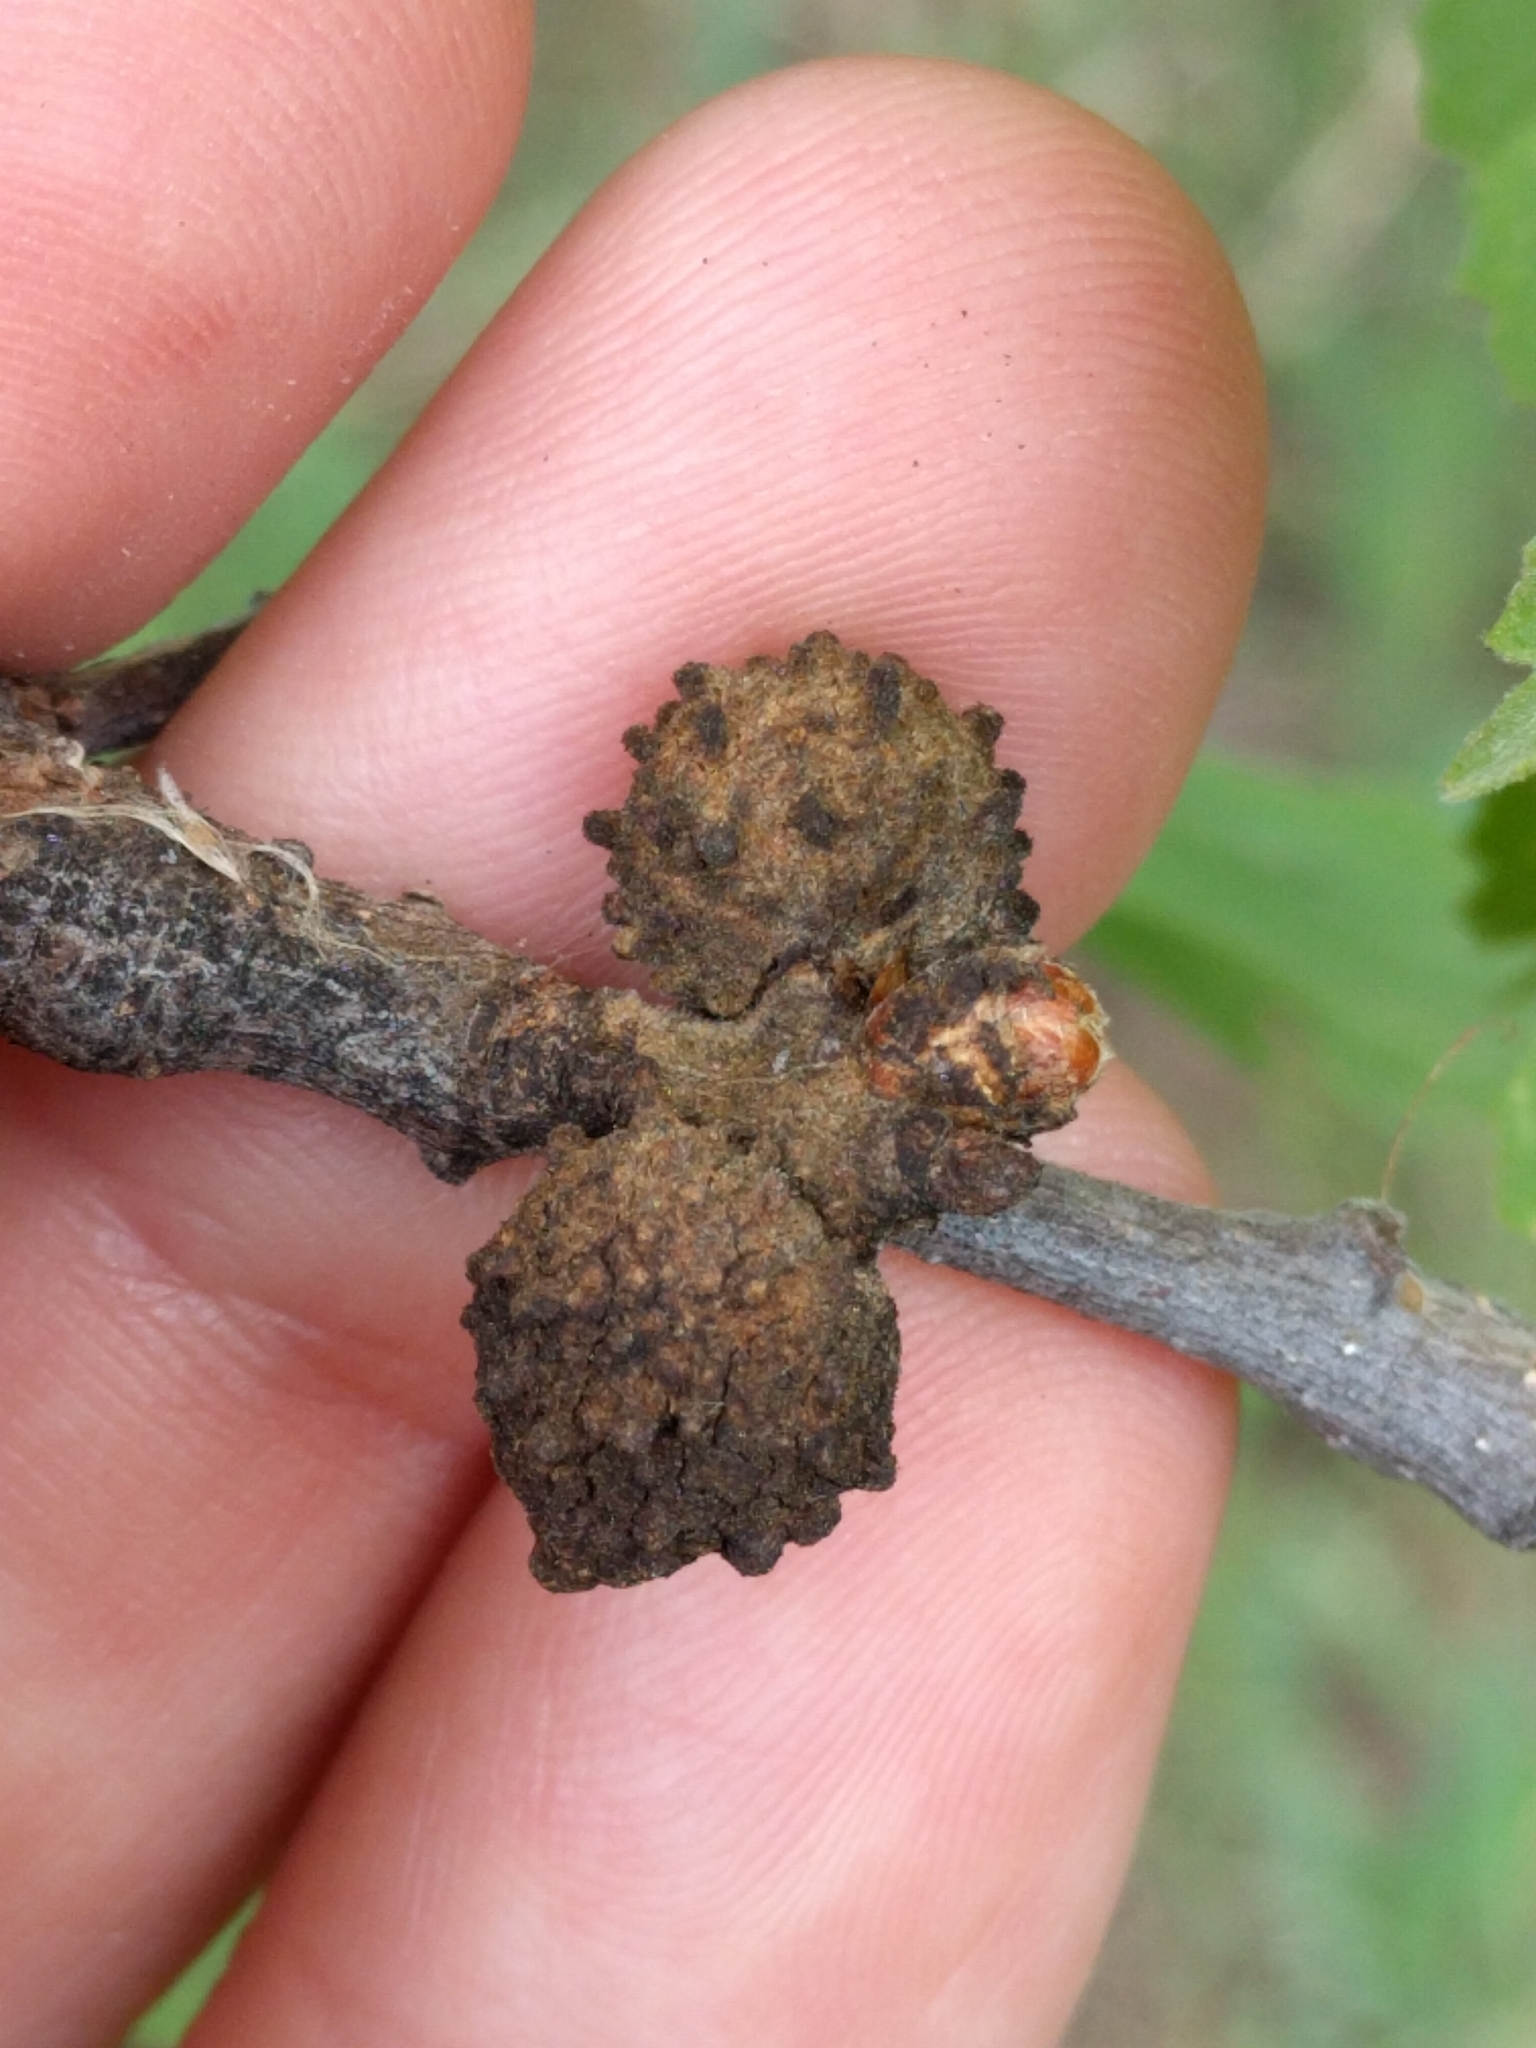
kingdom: Animalia
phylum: Arthropoda
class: Insecta
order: Hymenoptera
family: Cynipidae
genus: Burnettweldia
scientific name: Burnettweldia
